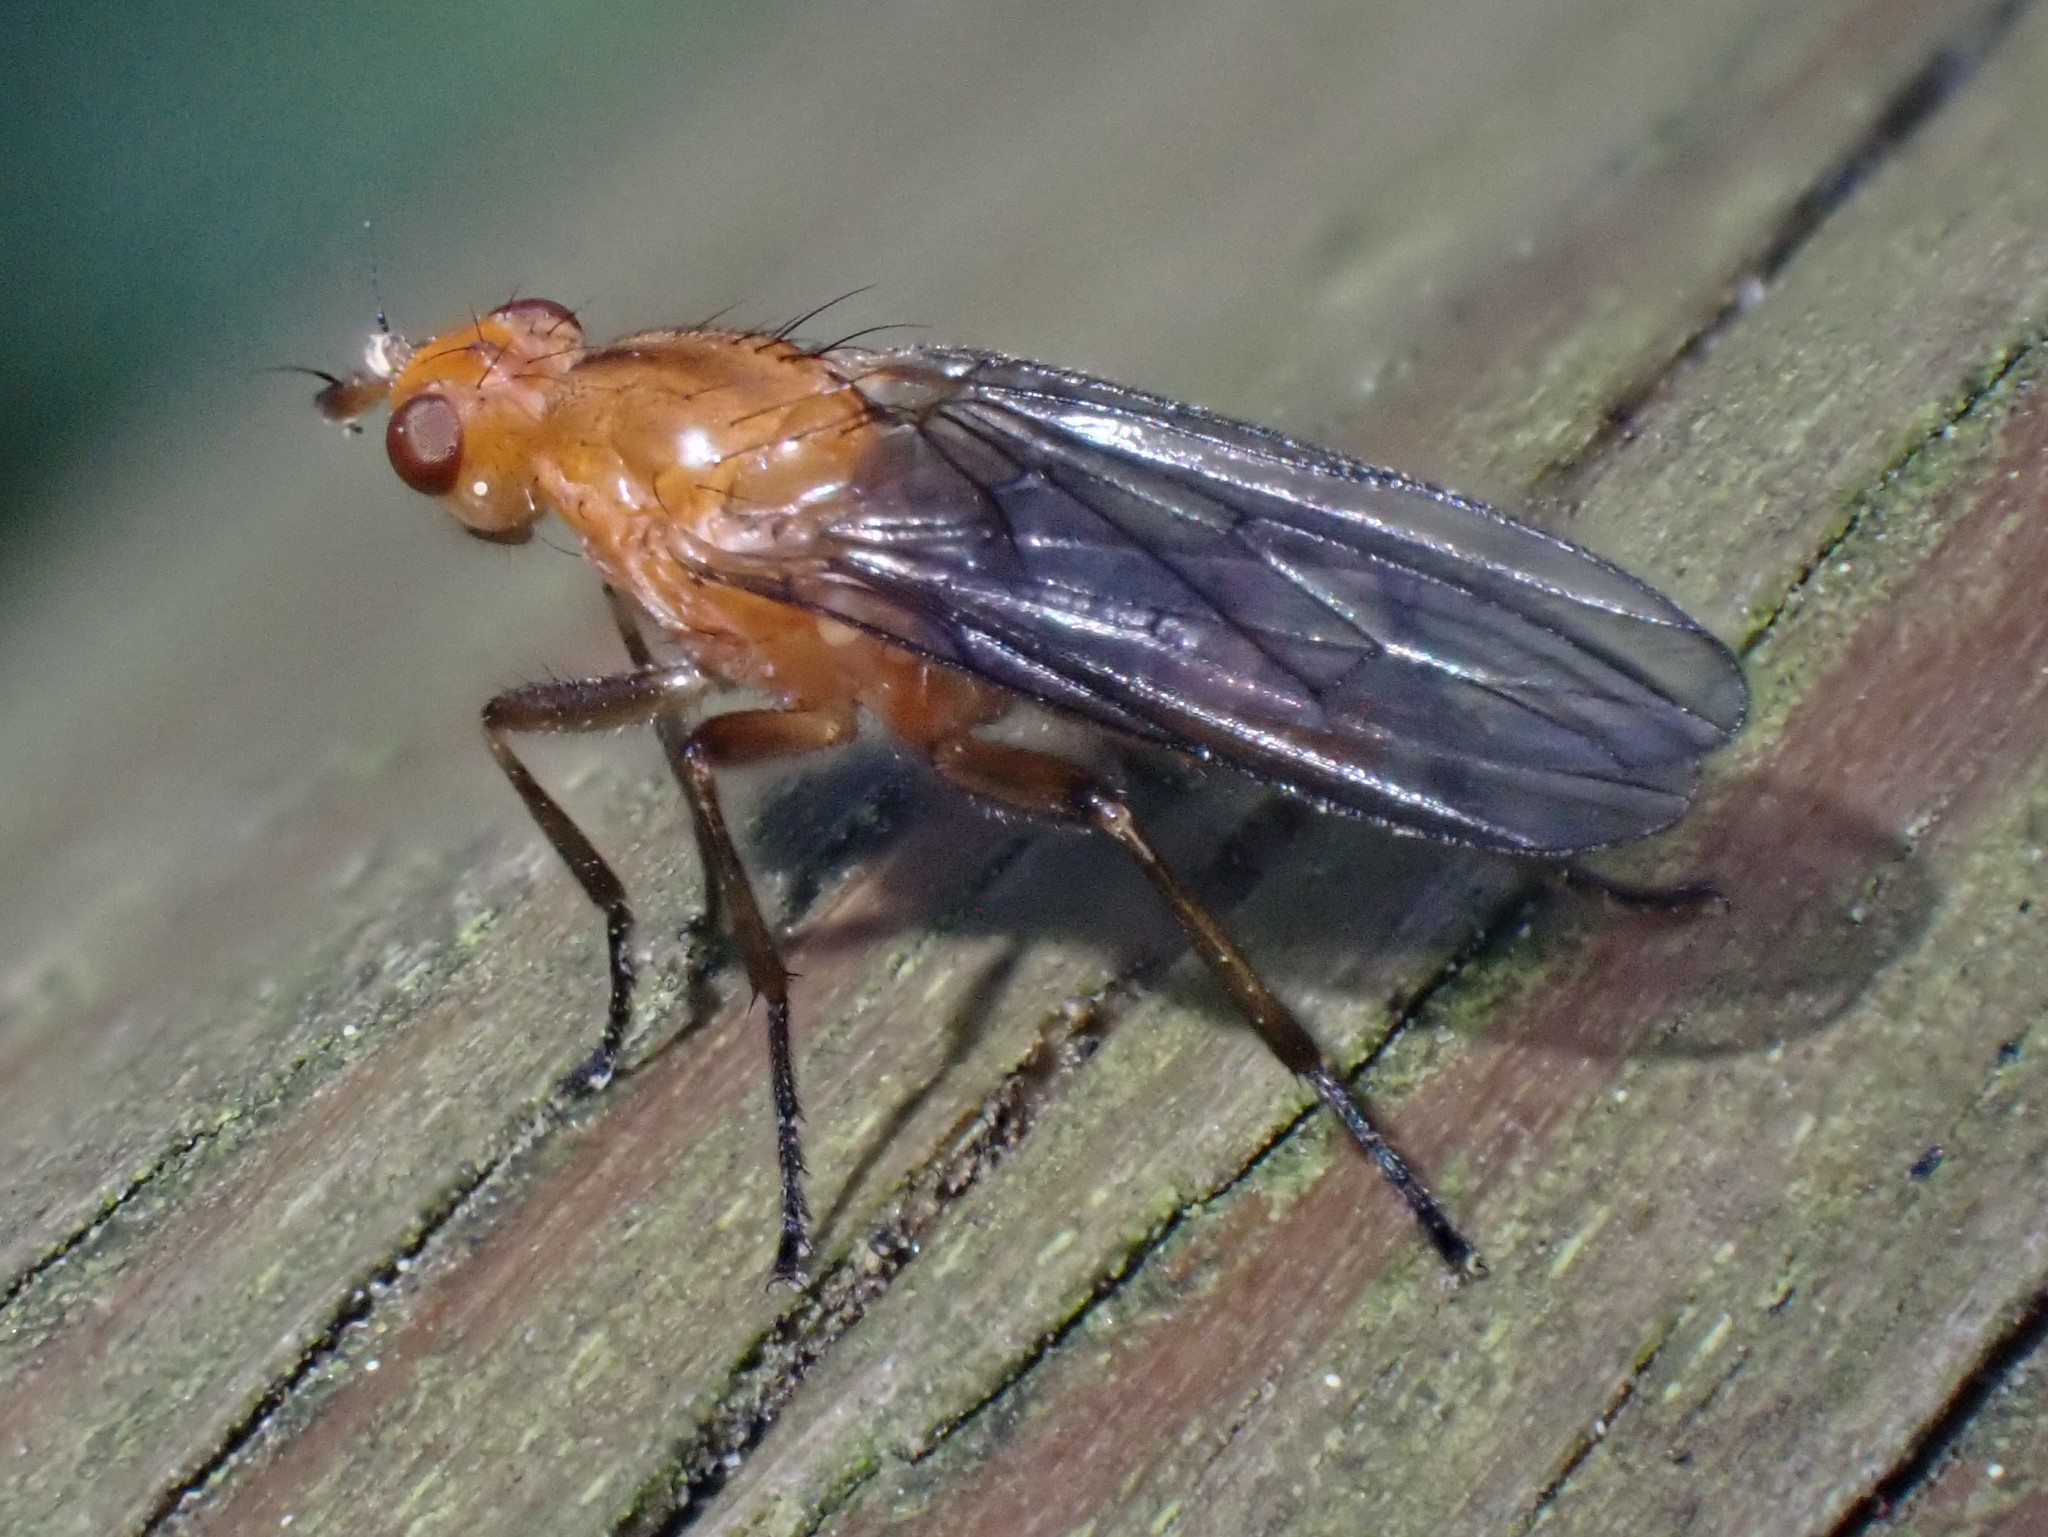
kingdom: Animalia
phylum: Arthropoda
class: Insecta
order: Diptera
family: Dryomyzidae
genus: Paradryomyza
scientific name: Paradryomyza setosa
